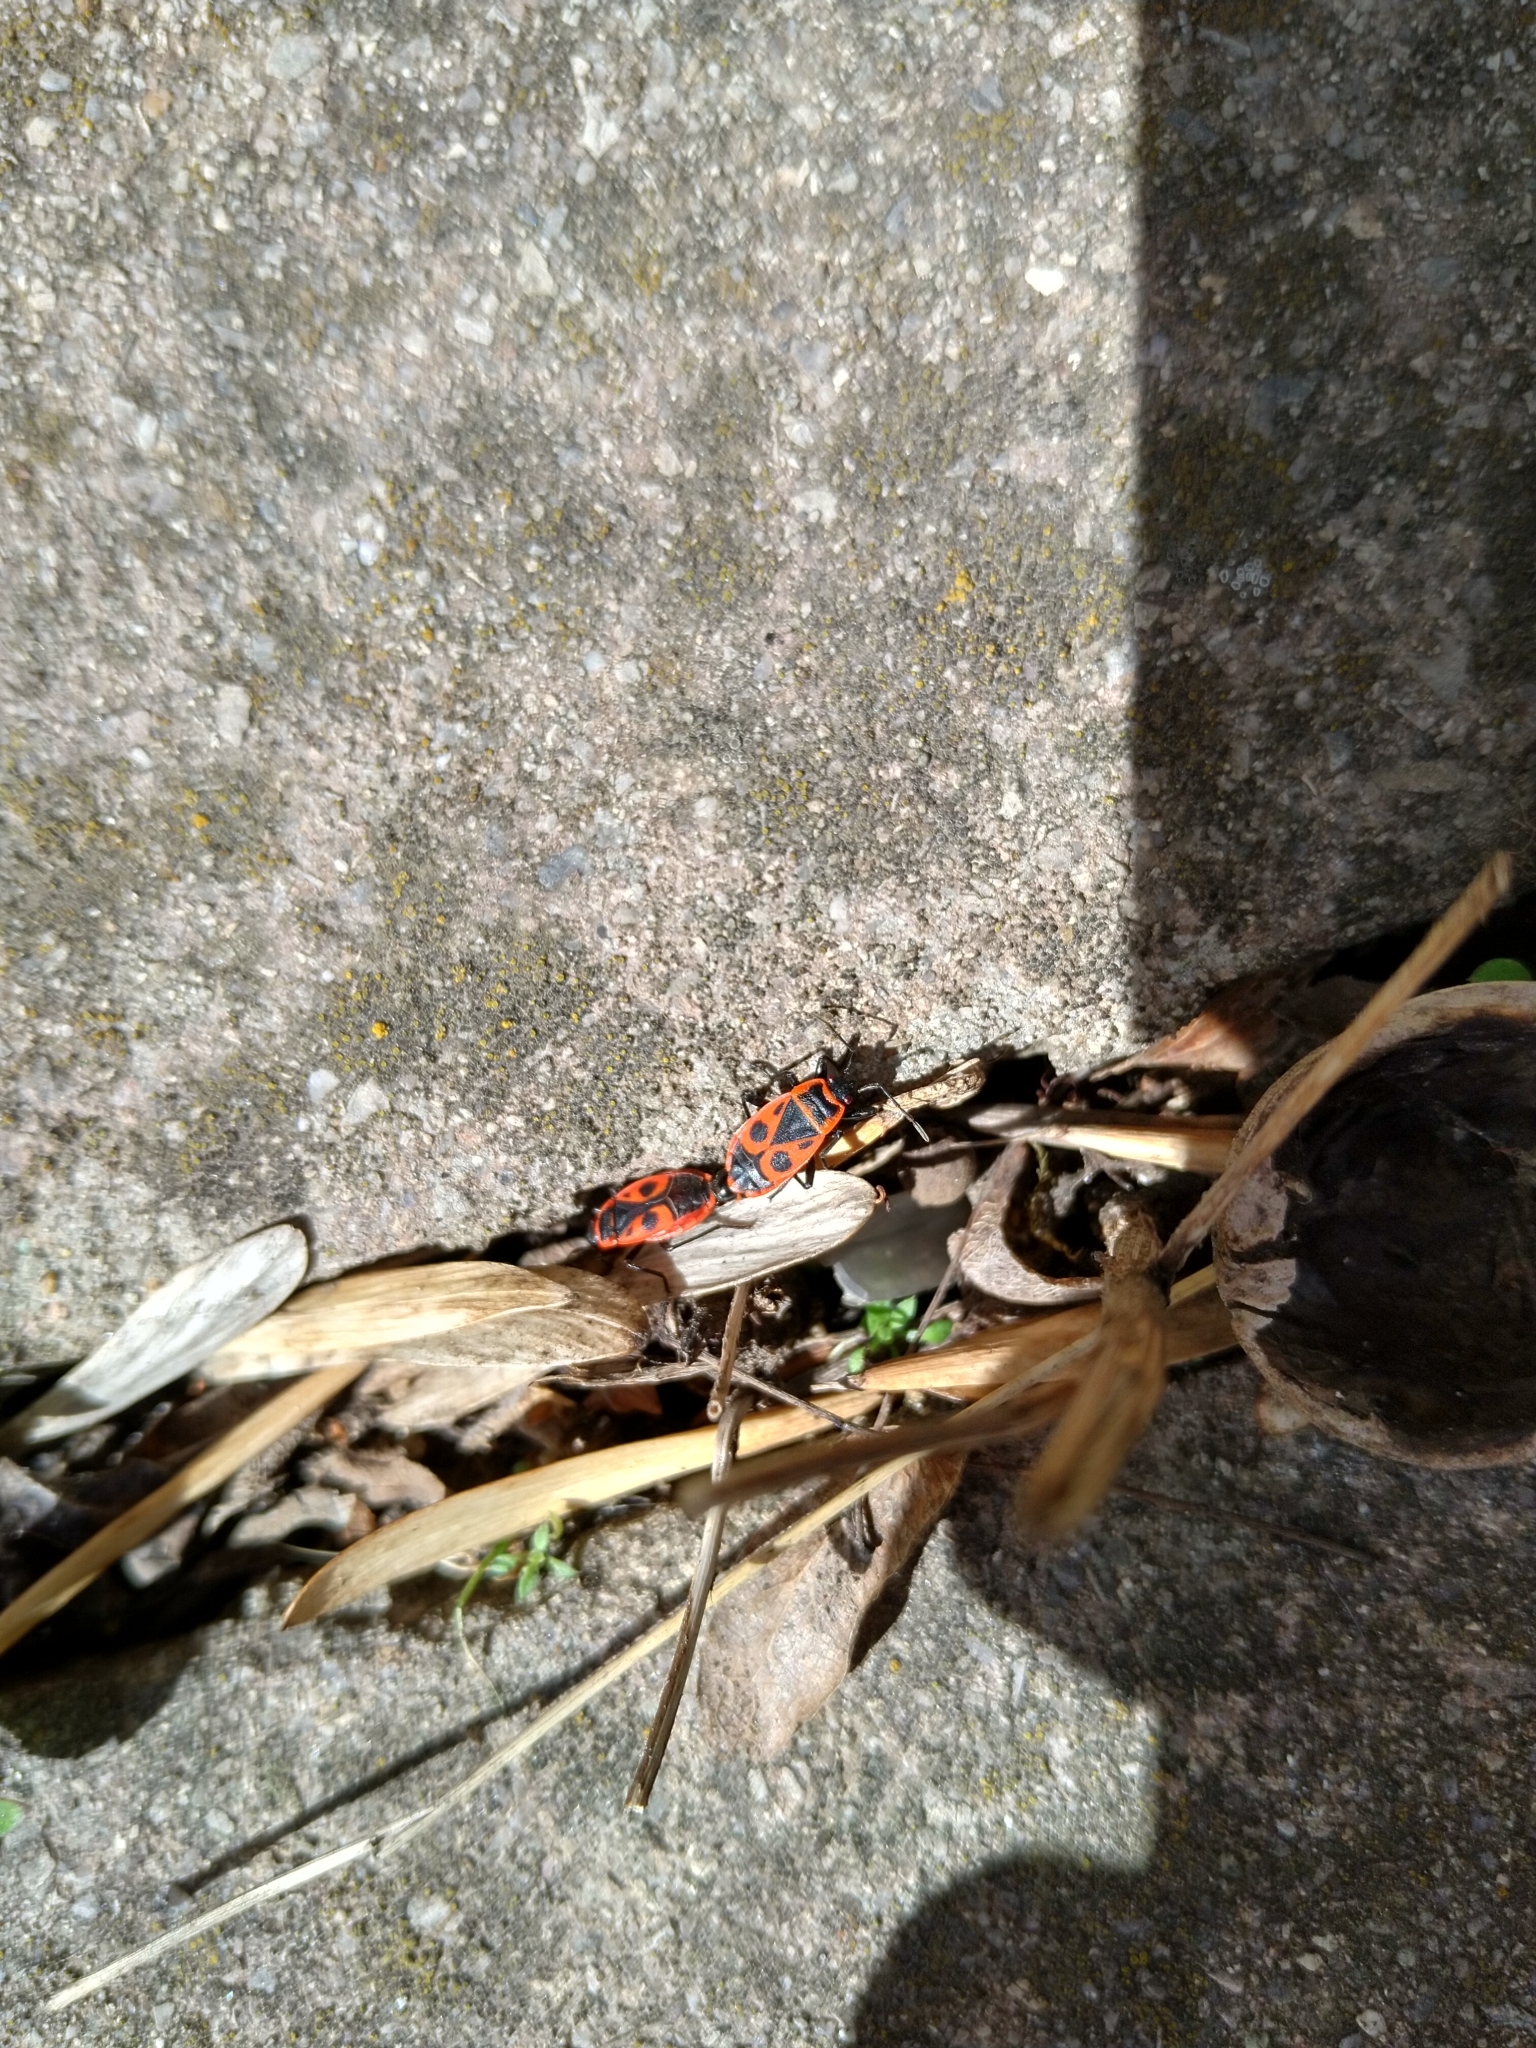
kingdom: Animalia
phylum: Arthropoda
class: Insecta
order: Hemiptera
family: Pyrrhocoridae
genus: Pyrrhocoris
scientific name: Pyrrhocoris apterus
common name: Firebug
